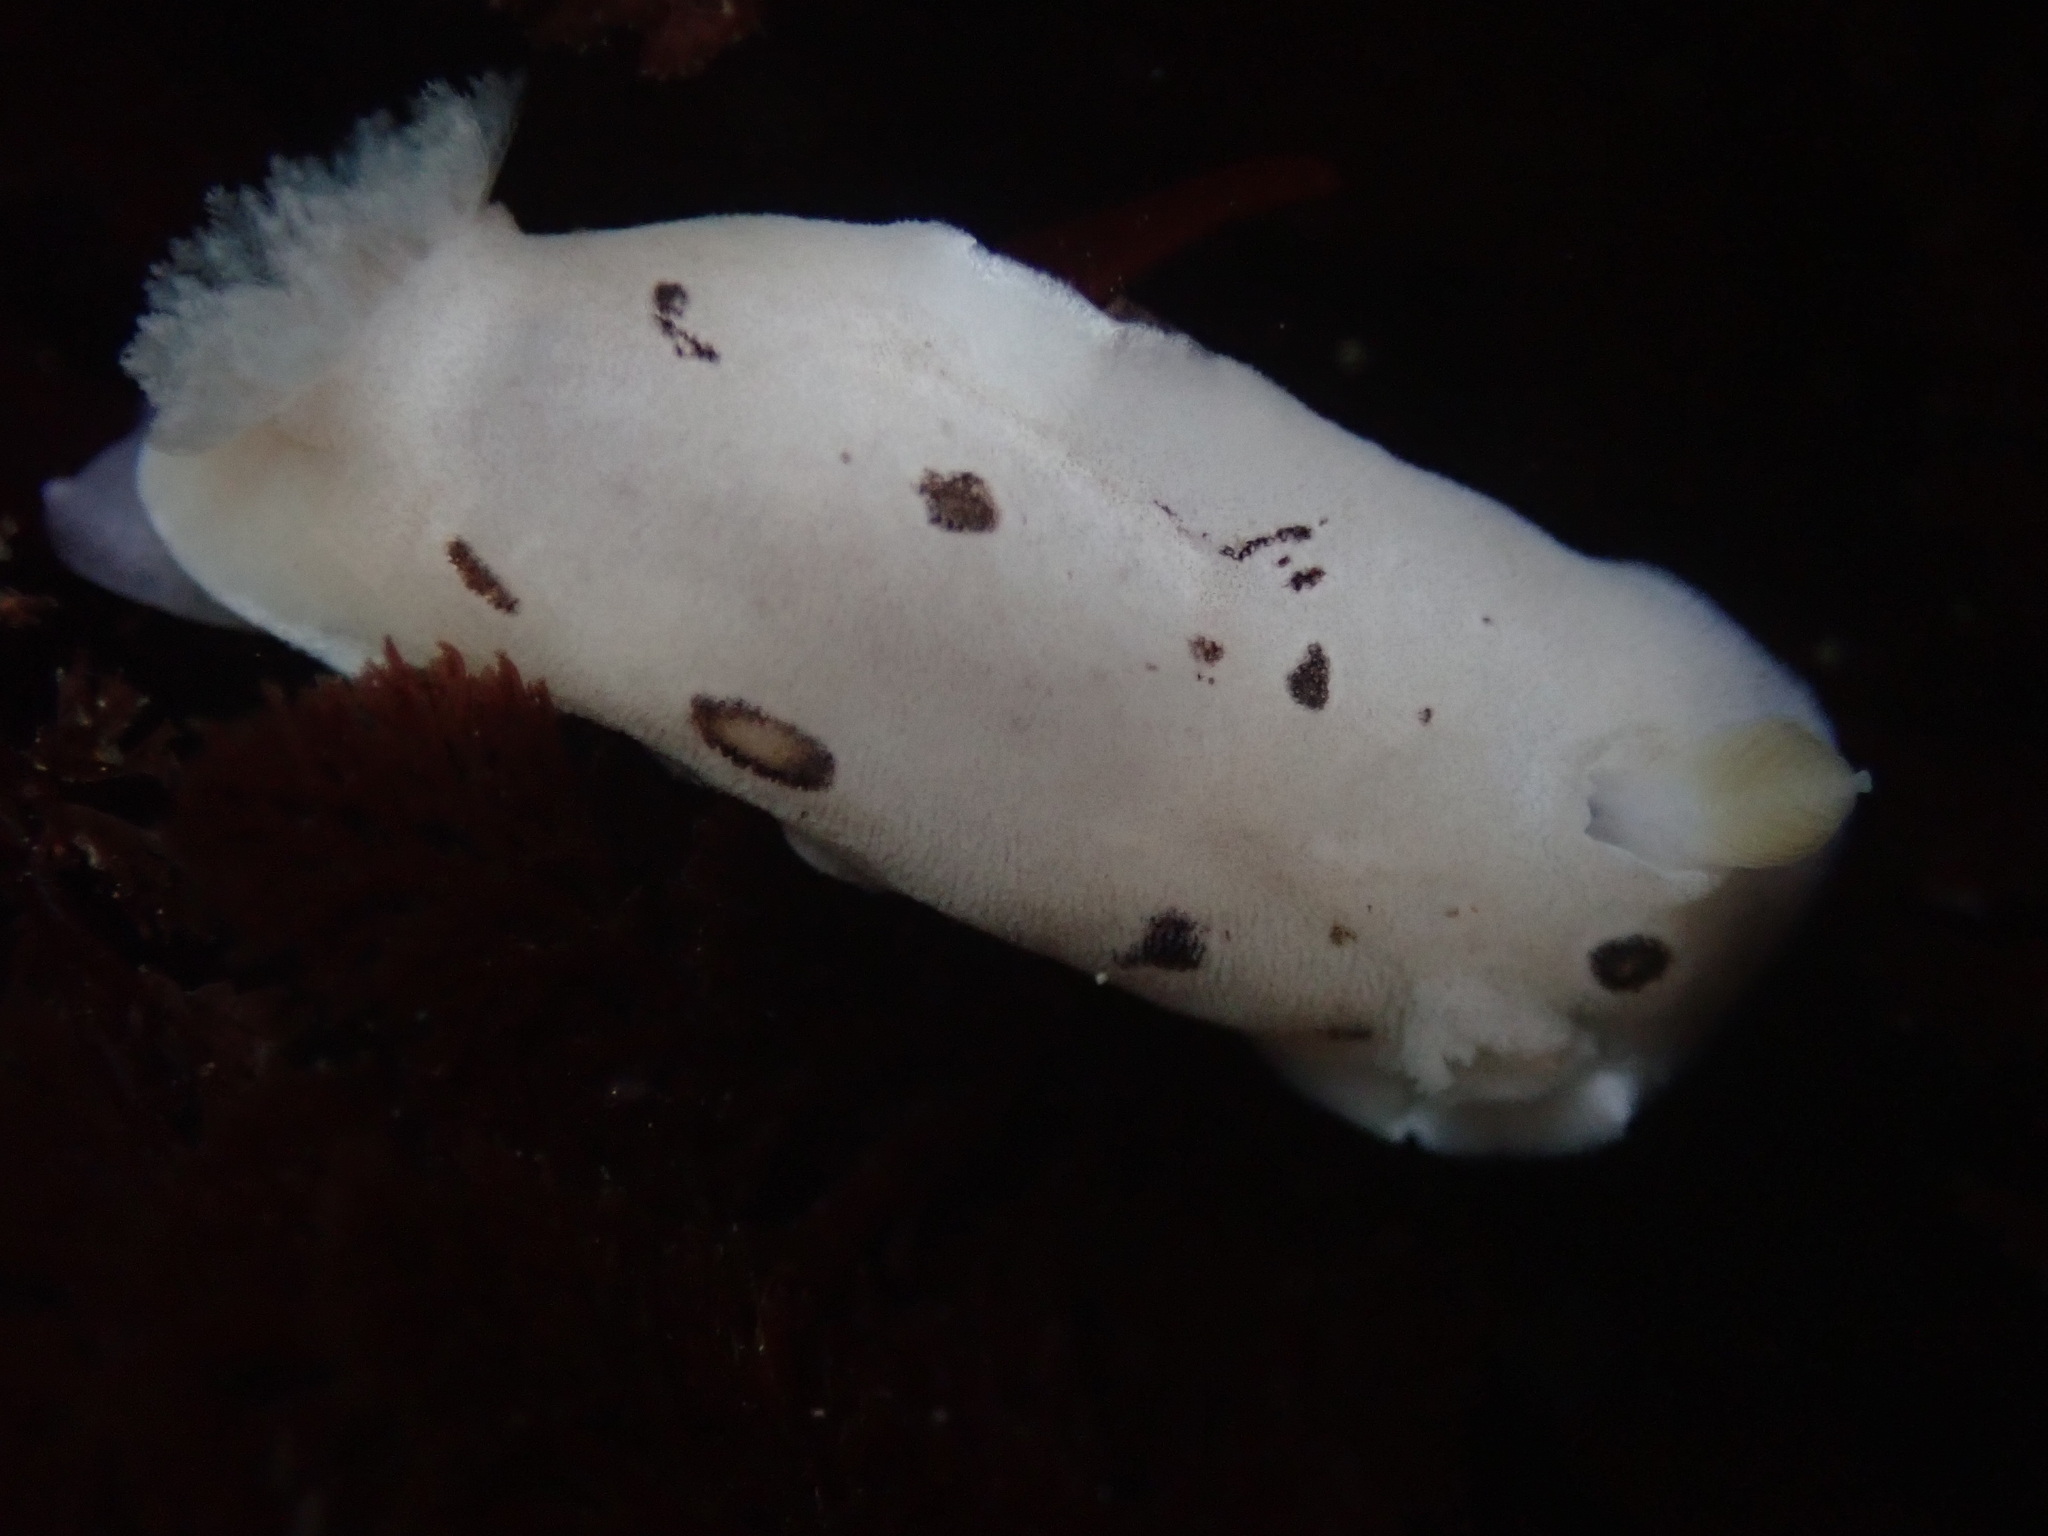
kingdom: Animalia
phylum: Mollusca
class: Gastropoda
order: Nudibranchia
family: Discodorididae
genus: Diaulula
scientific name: Diaulula sandiegensis
